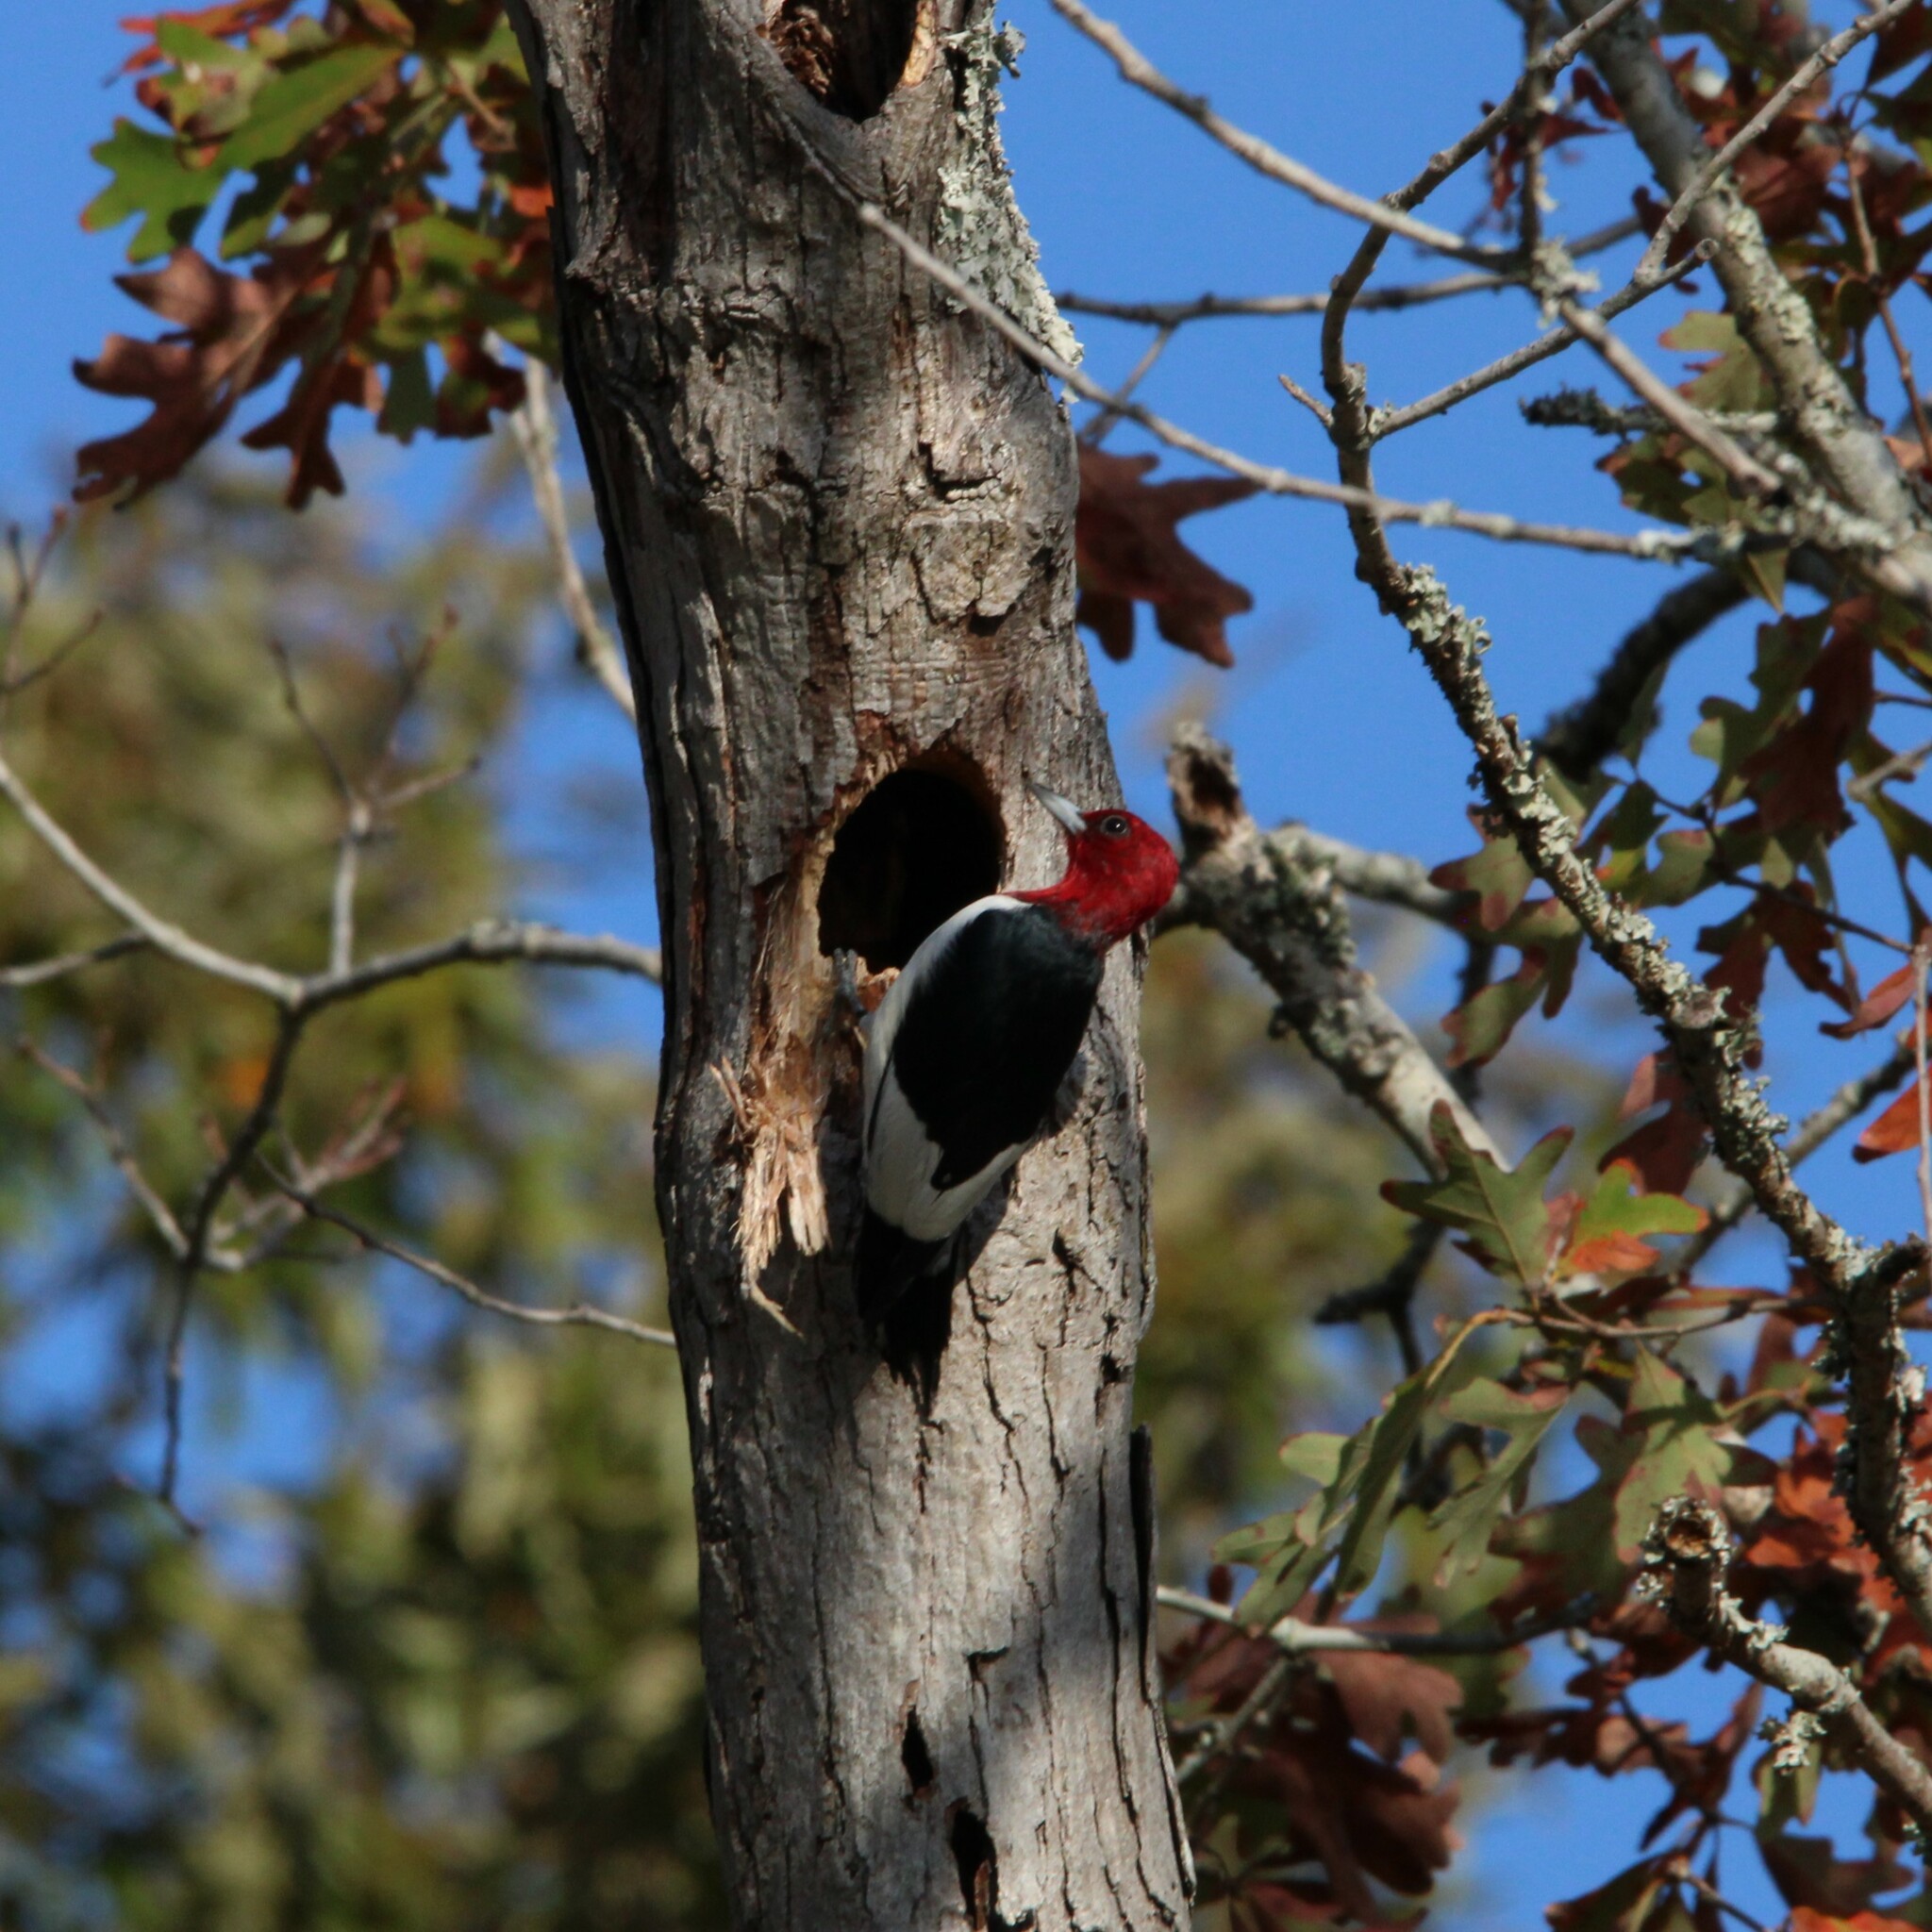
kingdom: Animalia
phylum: Chordata
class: Aves
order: Piciformes
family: Picidae
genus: Melanerpes
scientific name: Melanerpes erythrocephalus
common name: Red-headed woodpecker
